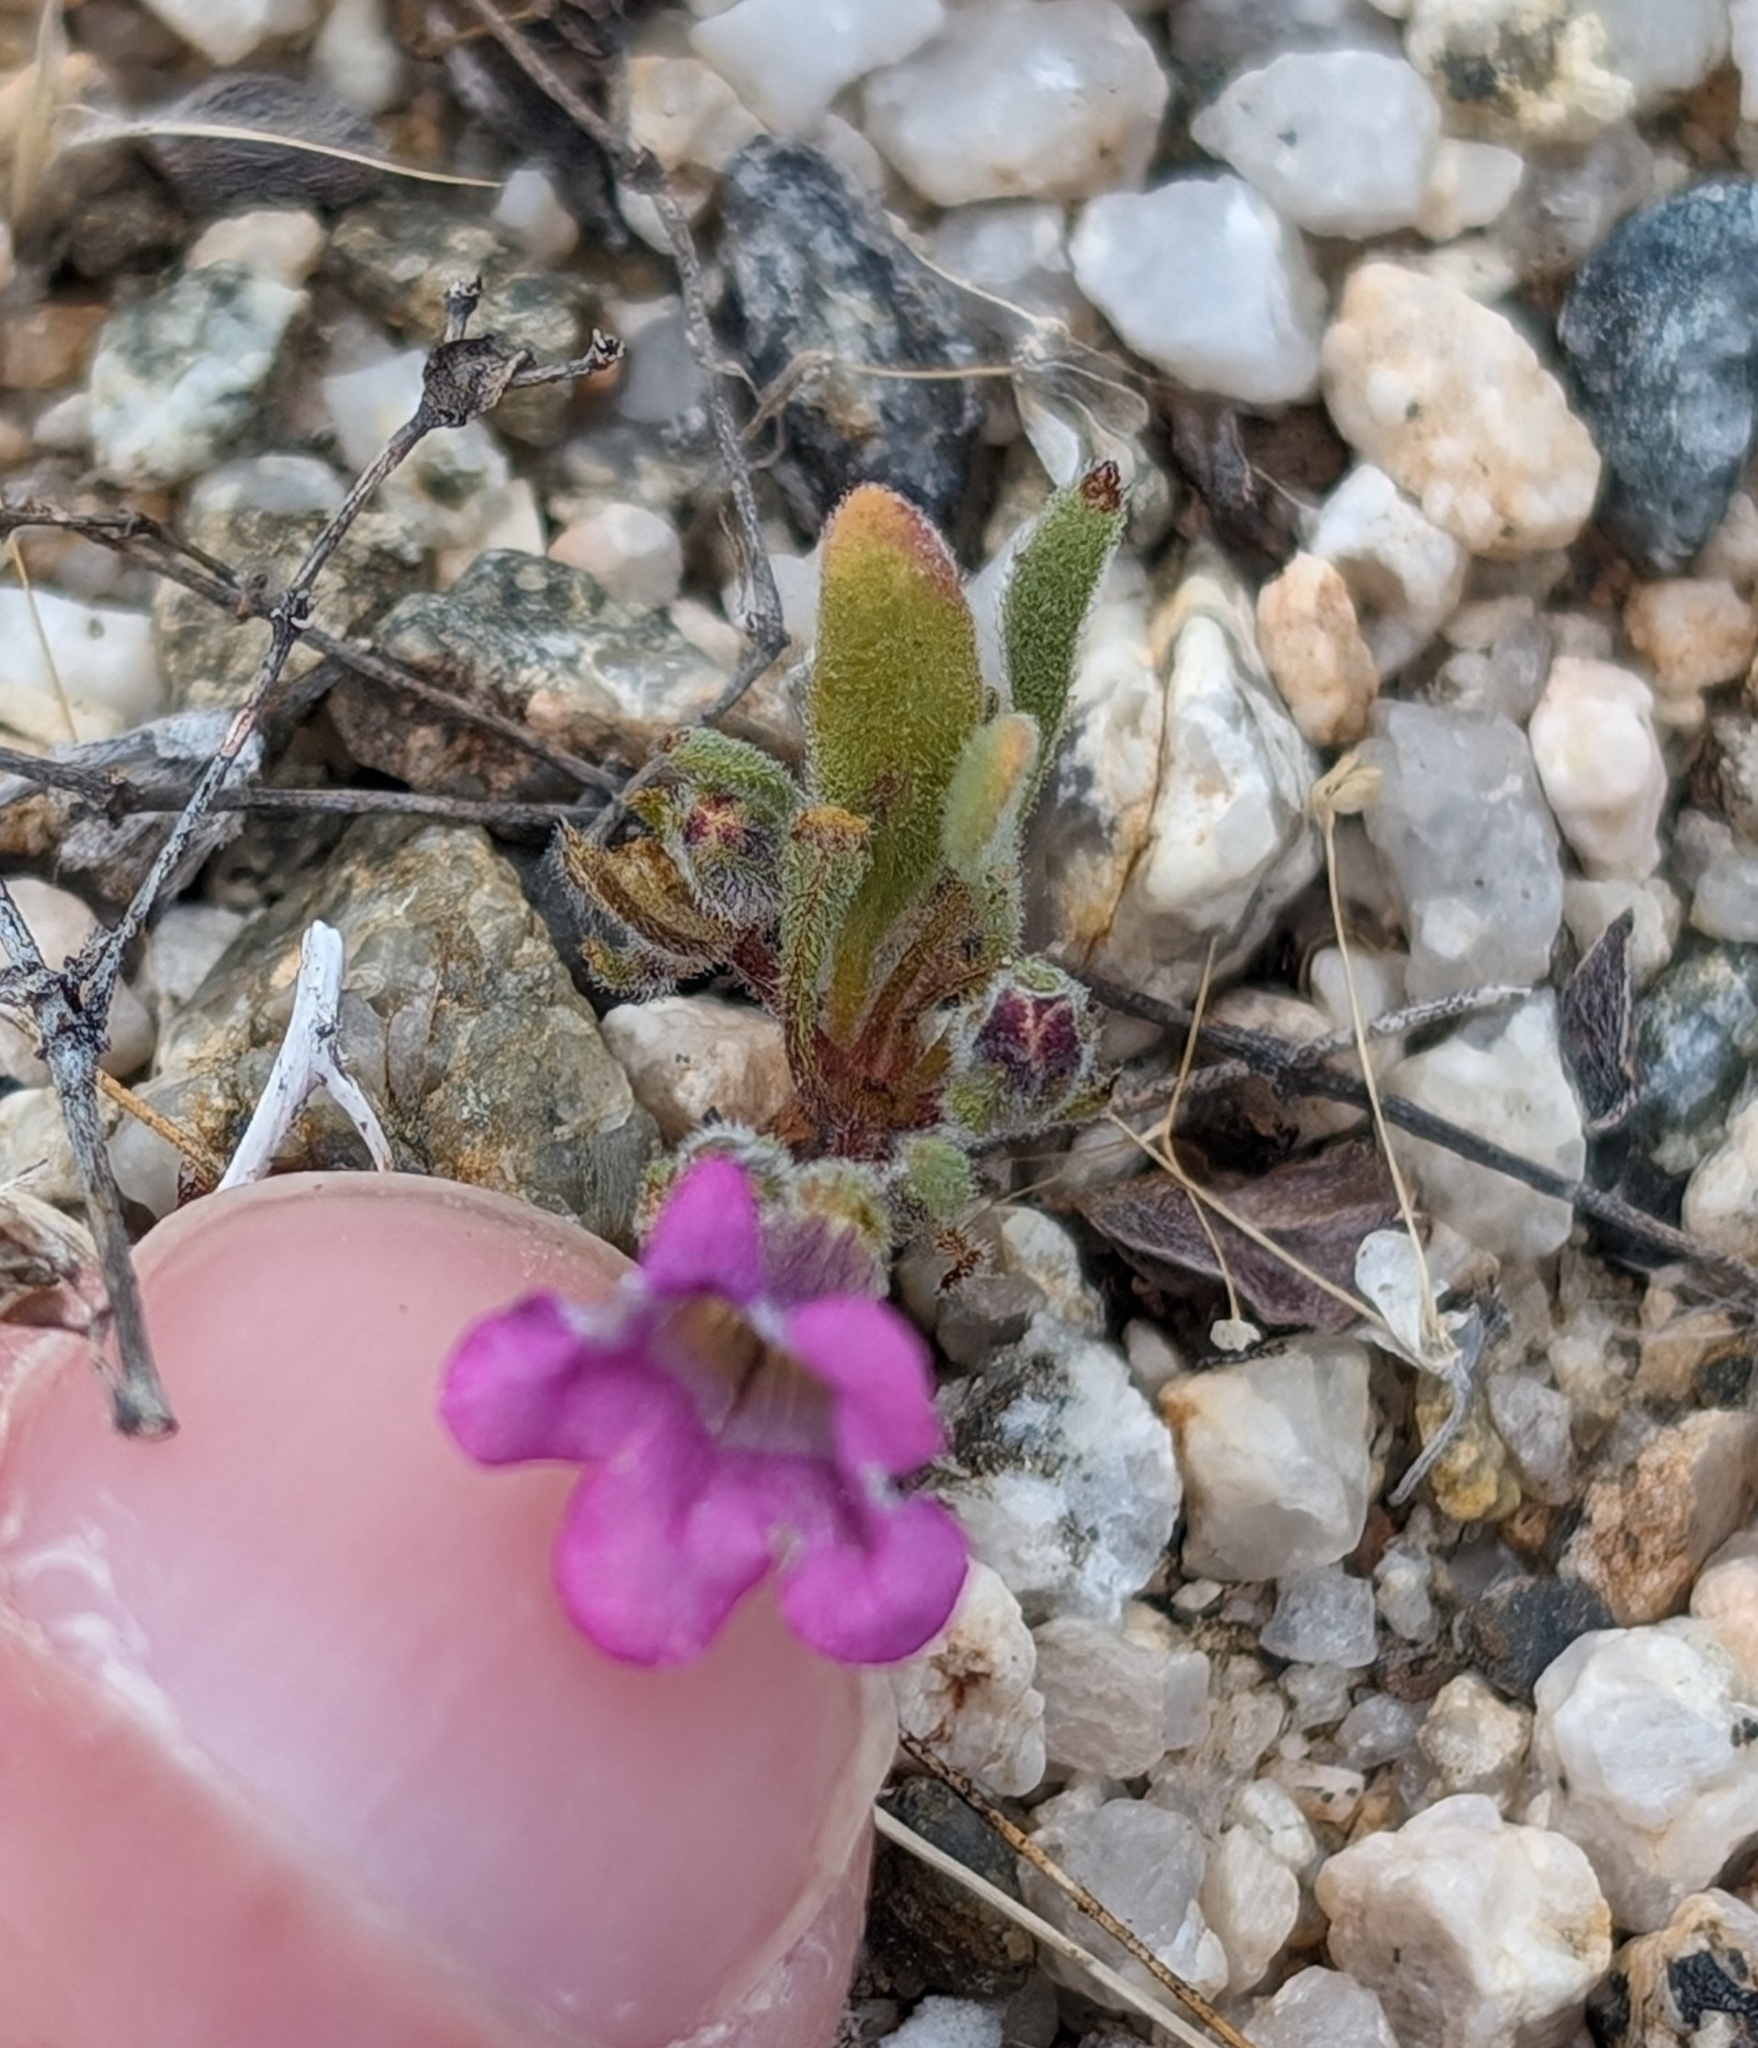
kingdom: Plantae
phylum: Tracheophyta
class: Magnoliopsida
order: Boraginales
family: Namaceae
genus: Nama
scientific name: Nama demissa
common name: Leafy nama
